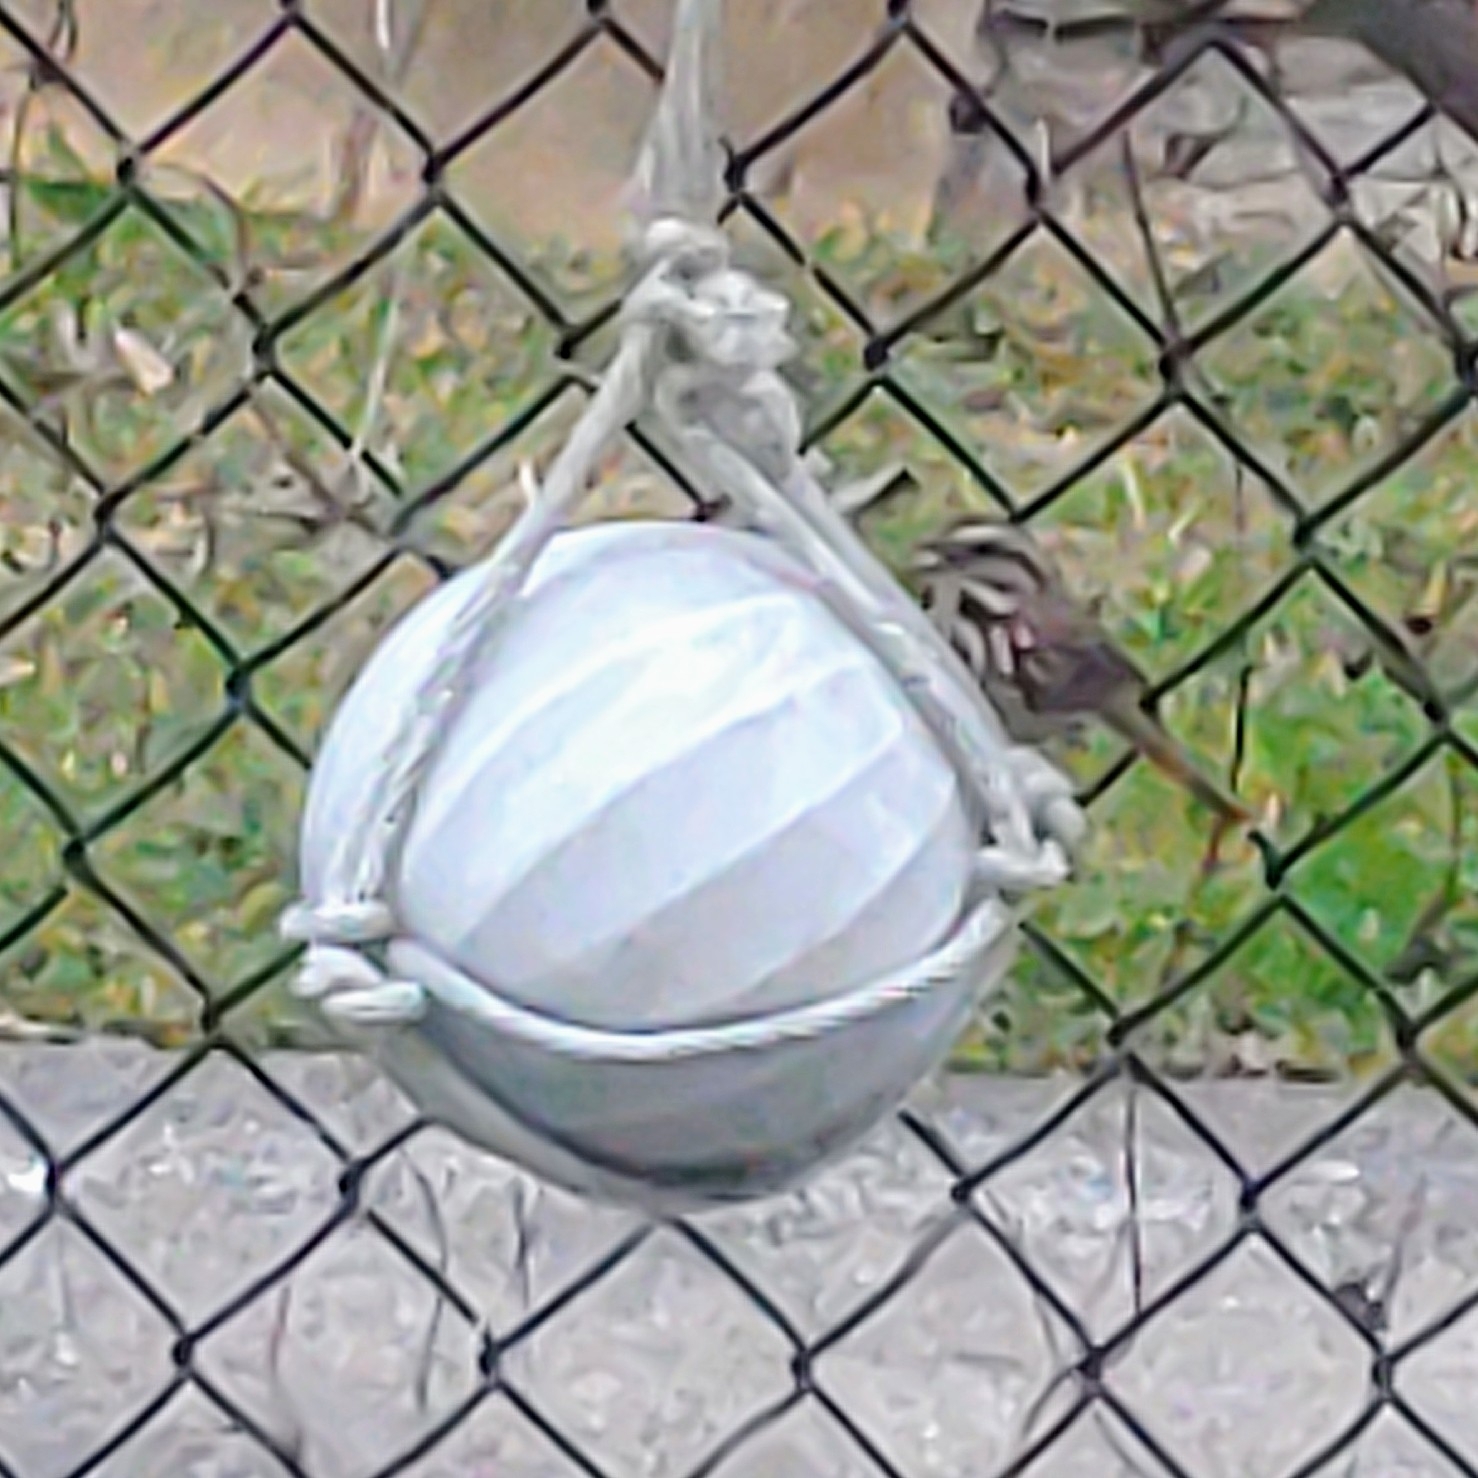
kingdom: Animalia
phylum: Chordata
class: Aves
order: Passeriformes
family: Passerellidae
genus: Melospiza
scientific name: Melospiza melodia
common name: Song sparrow
